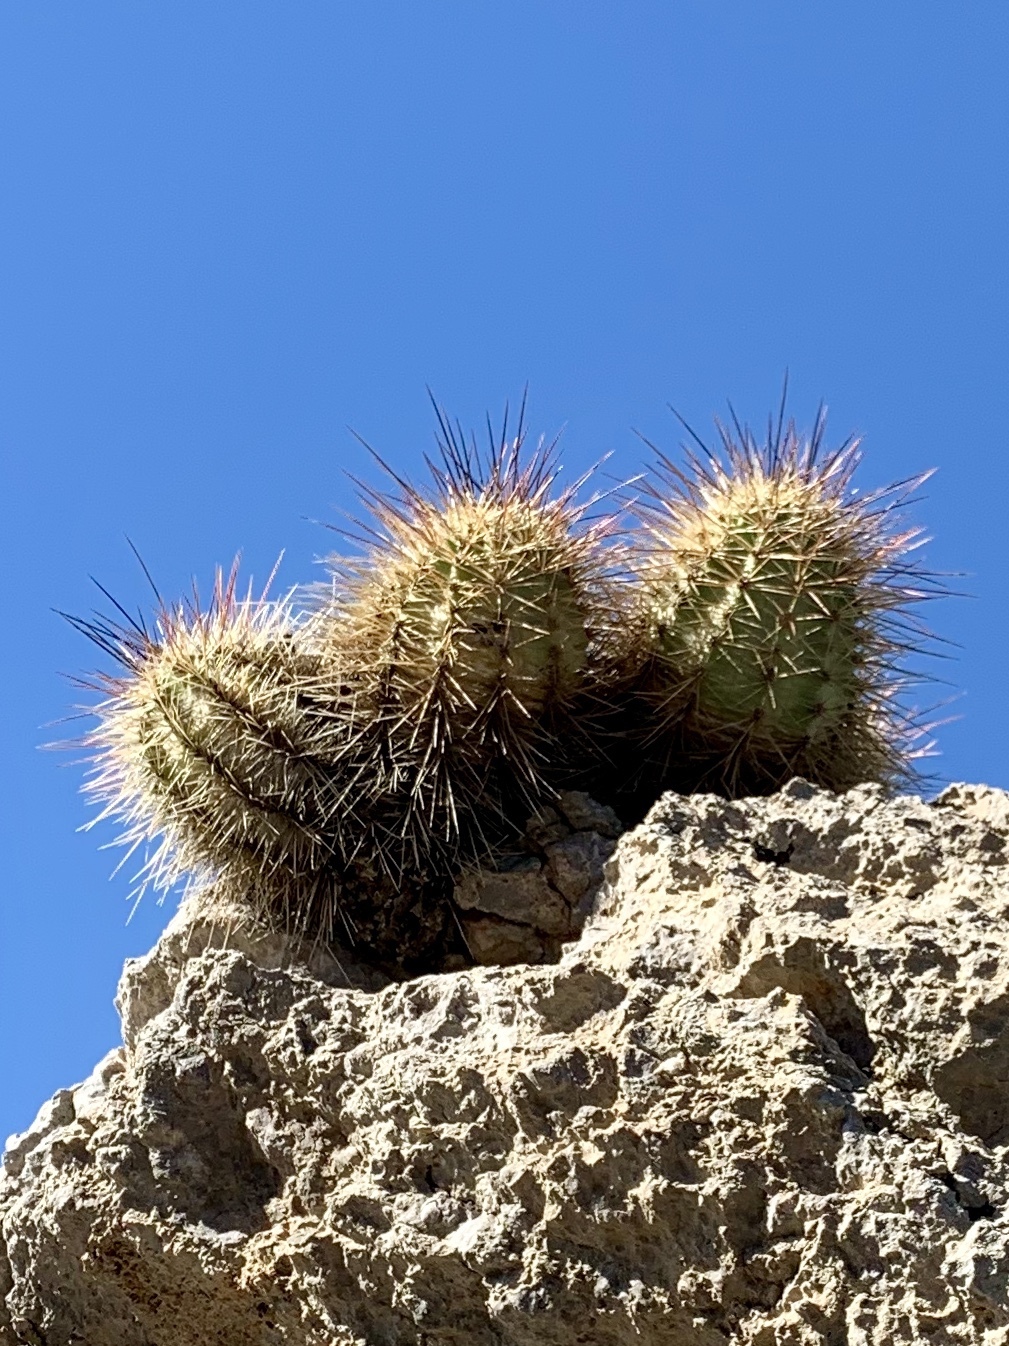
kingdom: Plantae
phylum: Tracheophyta
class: Magnoliopsida
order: Caryophyllales
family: Cactaceae
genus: Echinocereus
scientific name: Echinocereus coccineus
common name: Scarlet hedgehog cactus
